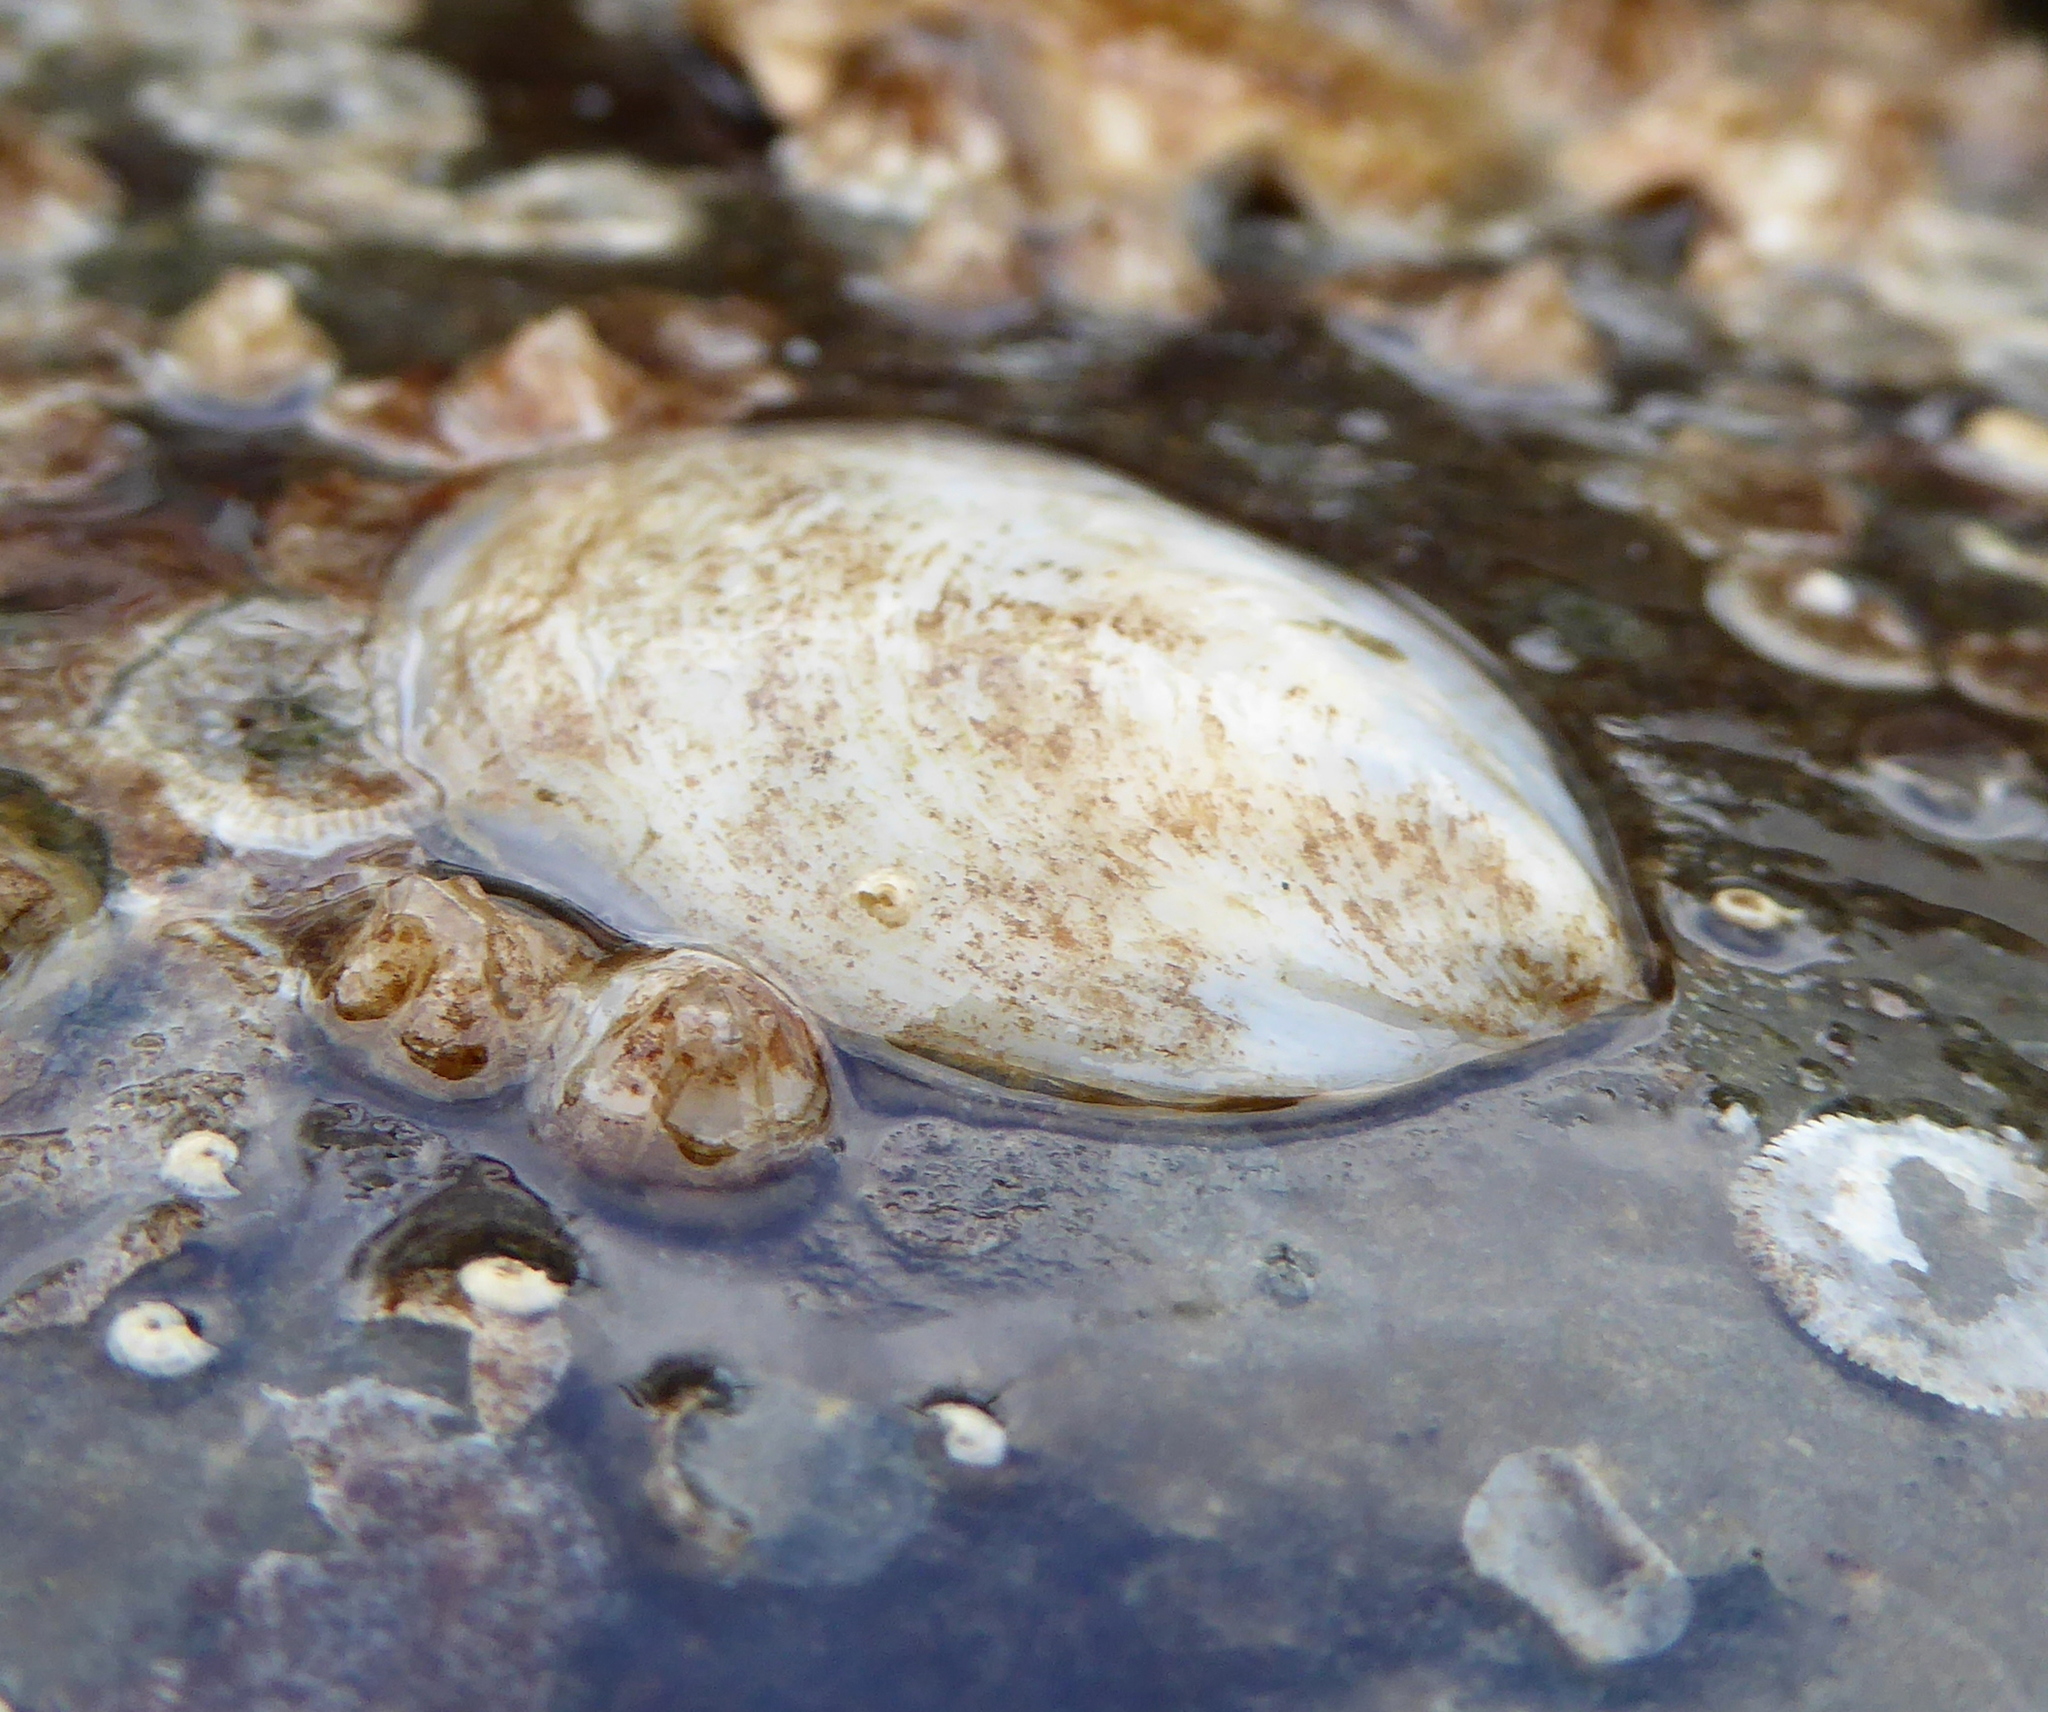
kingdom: Animalia
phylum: Mollusca
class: Gastropoda
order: Littorinimorpha
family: Calyptraeidae
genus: Crepidula
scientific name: Crepidula perforans
